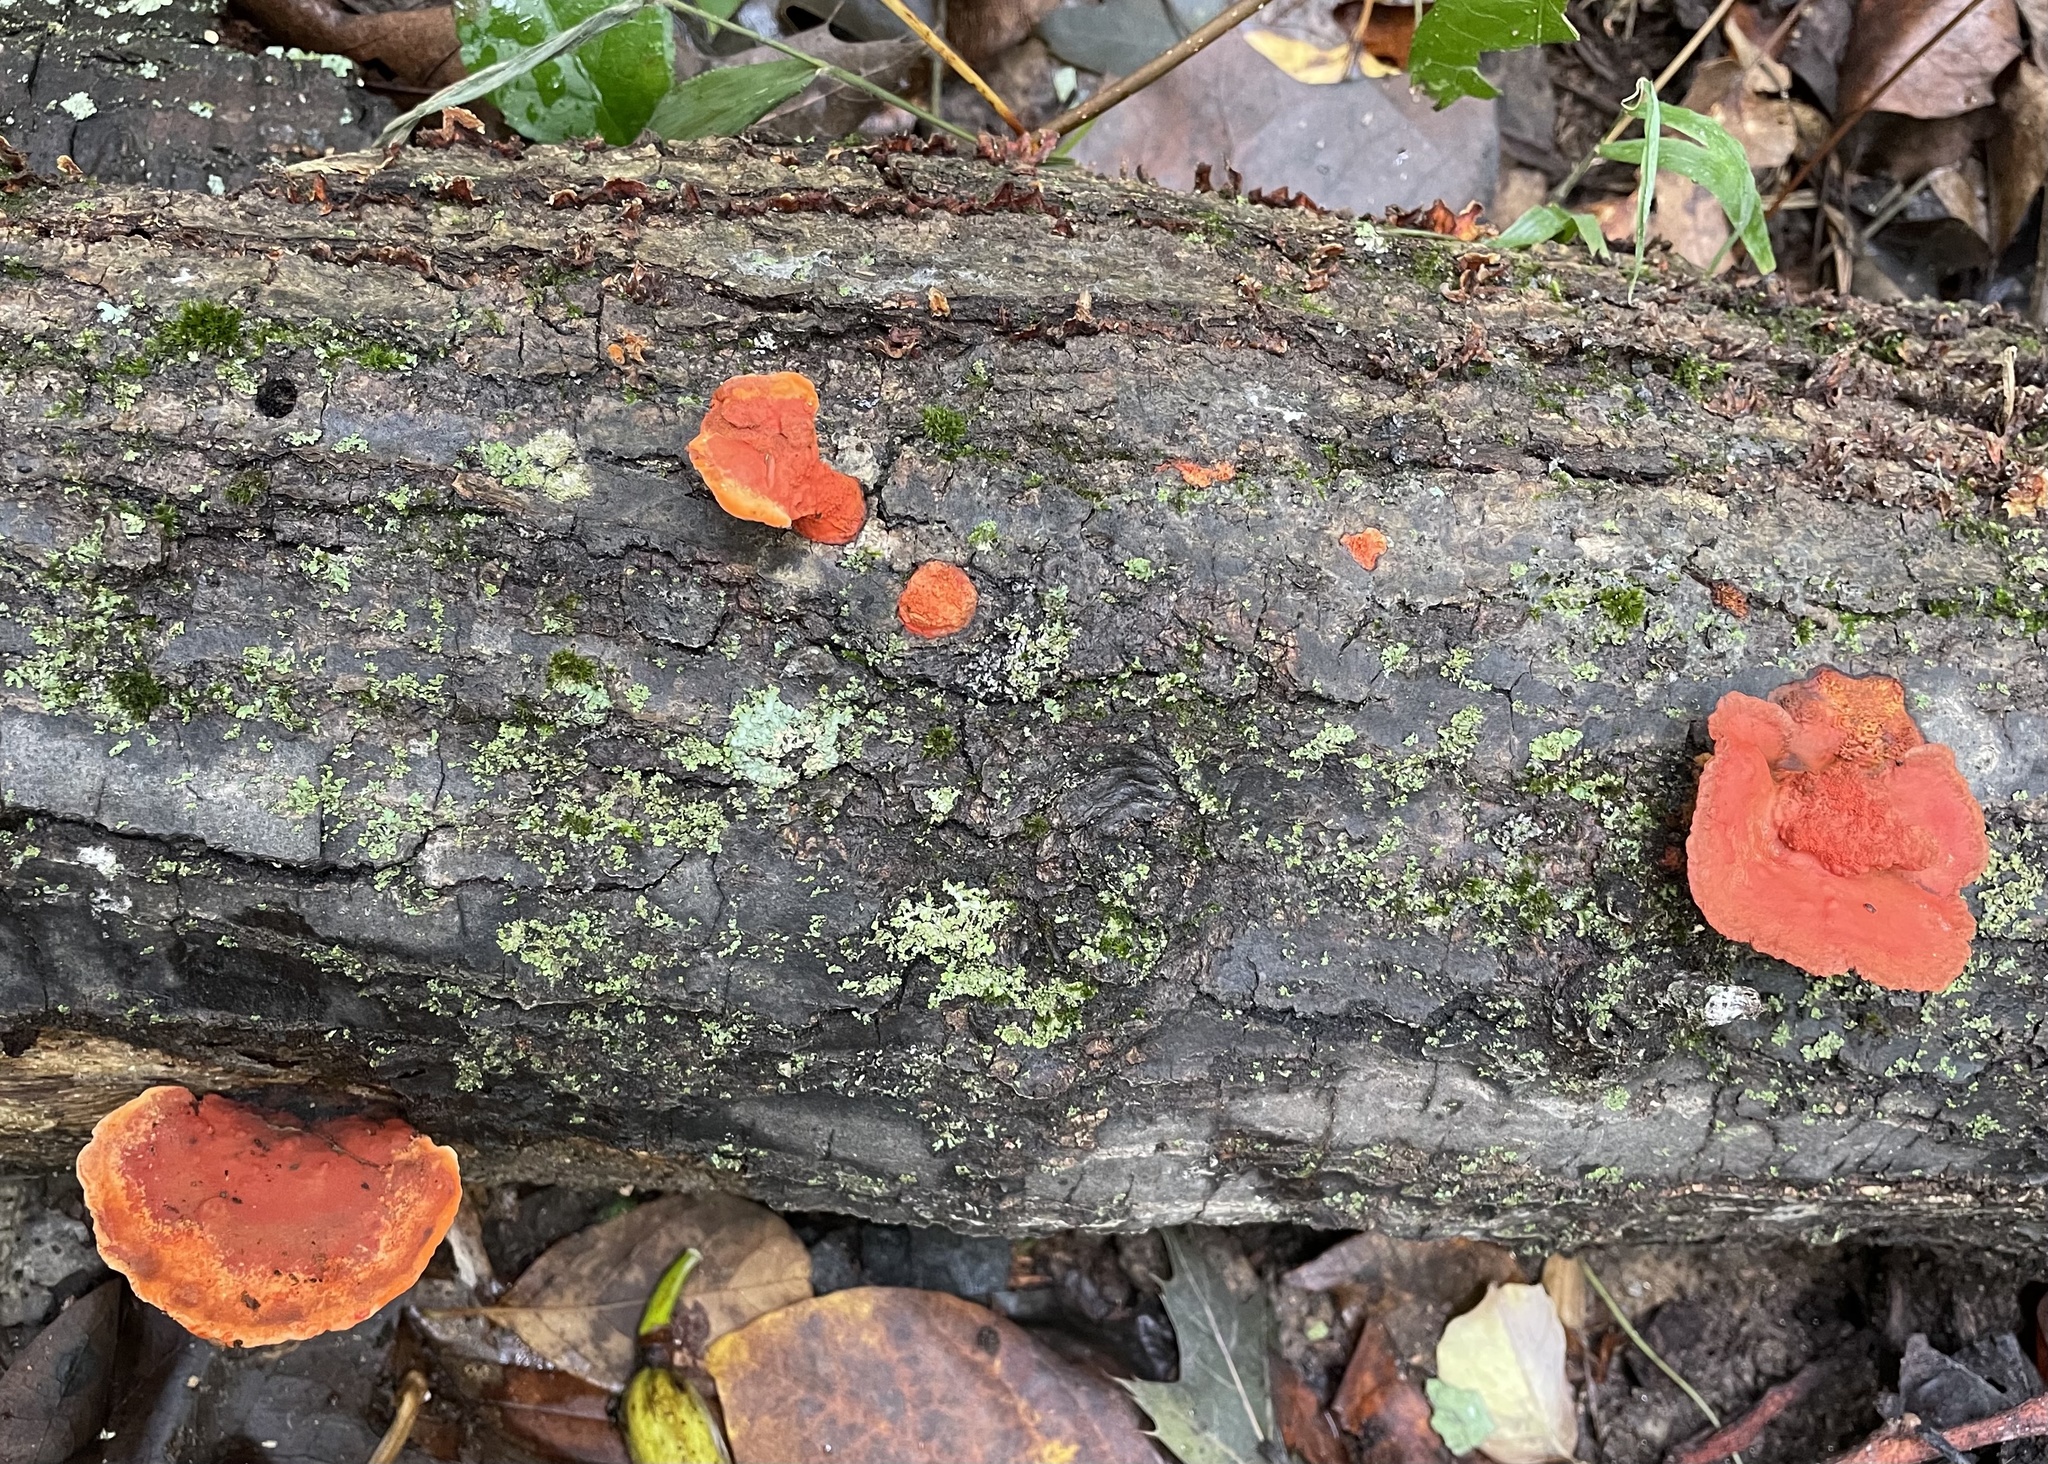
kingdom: Fungi
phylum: Basidiomycota
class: Agaricomycetes
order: Polyporales
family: Polyporaceae
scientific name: Polyporaceae
